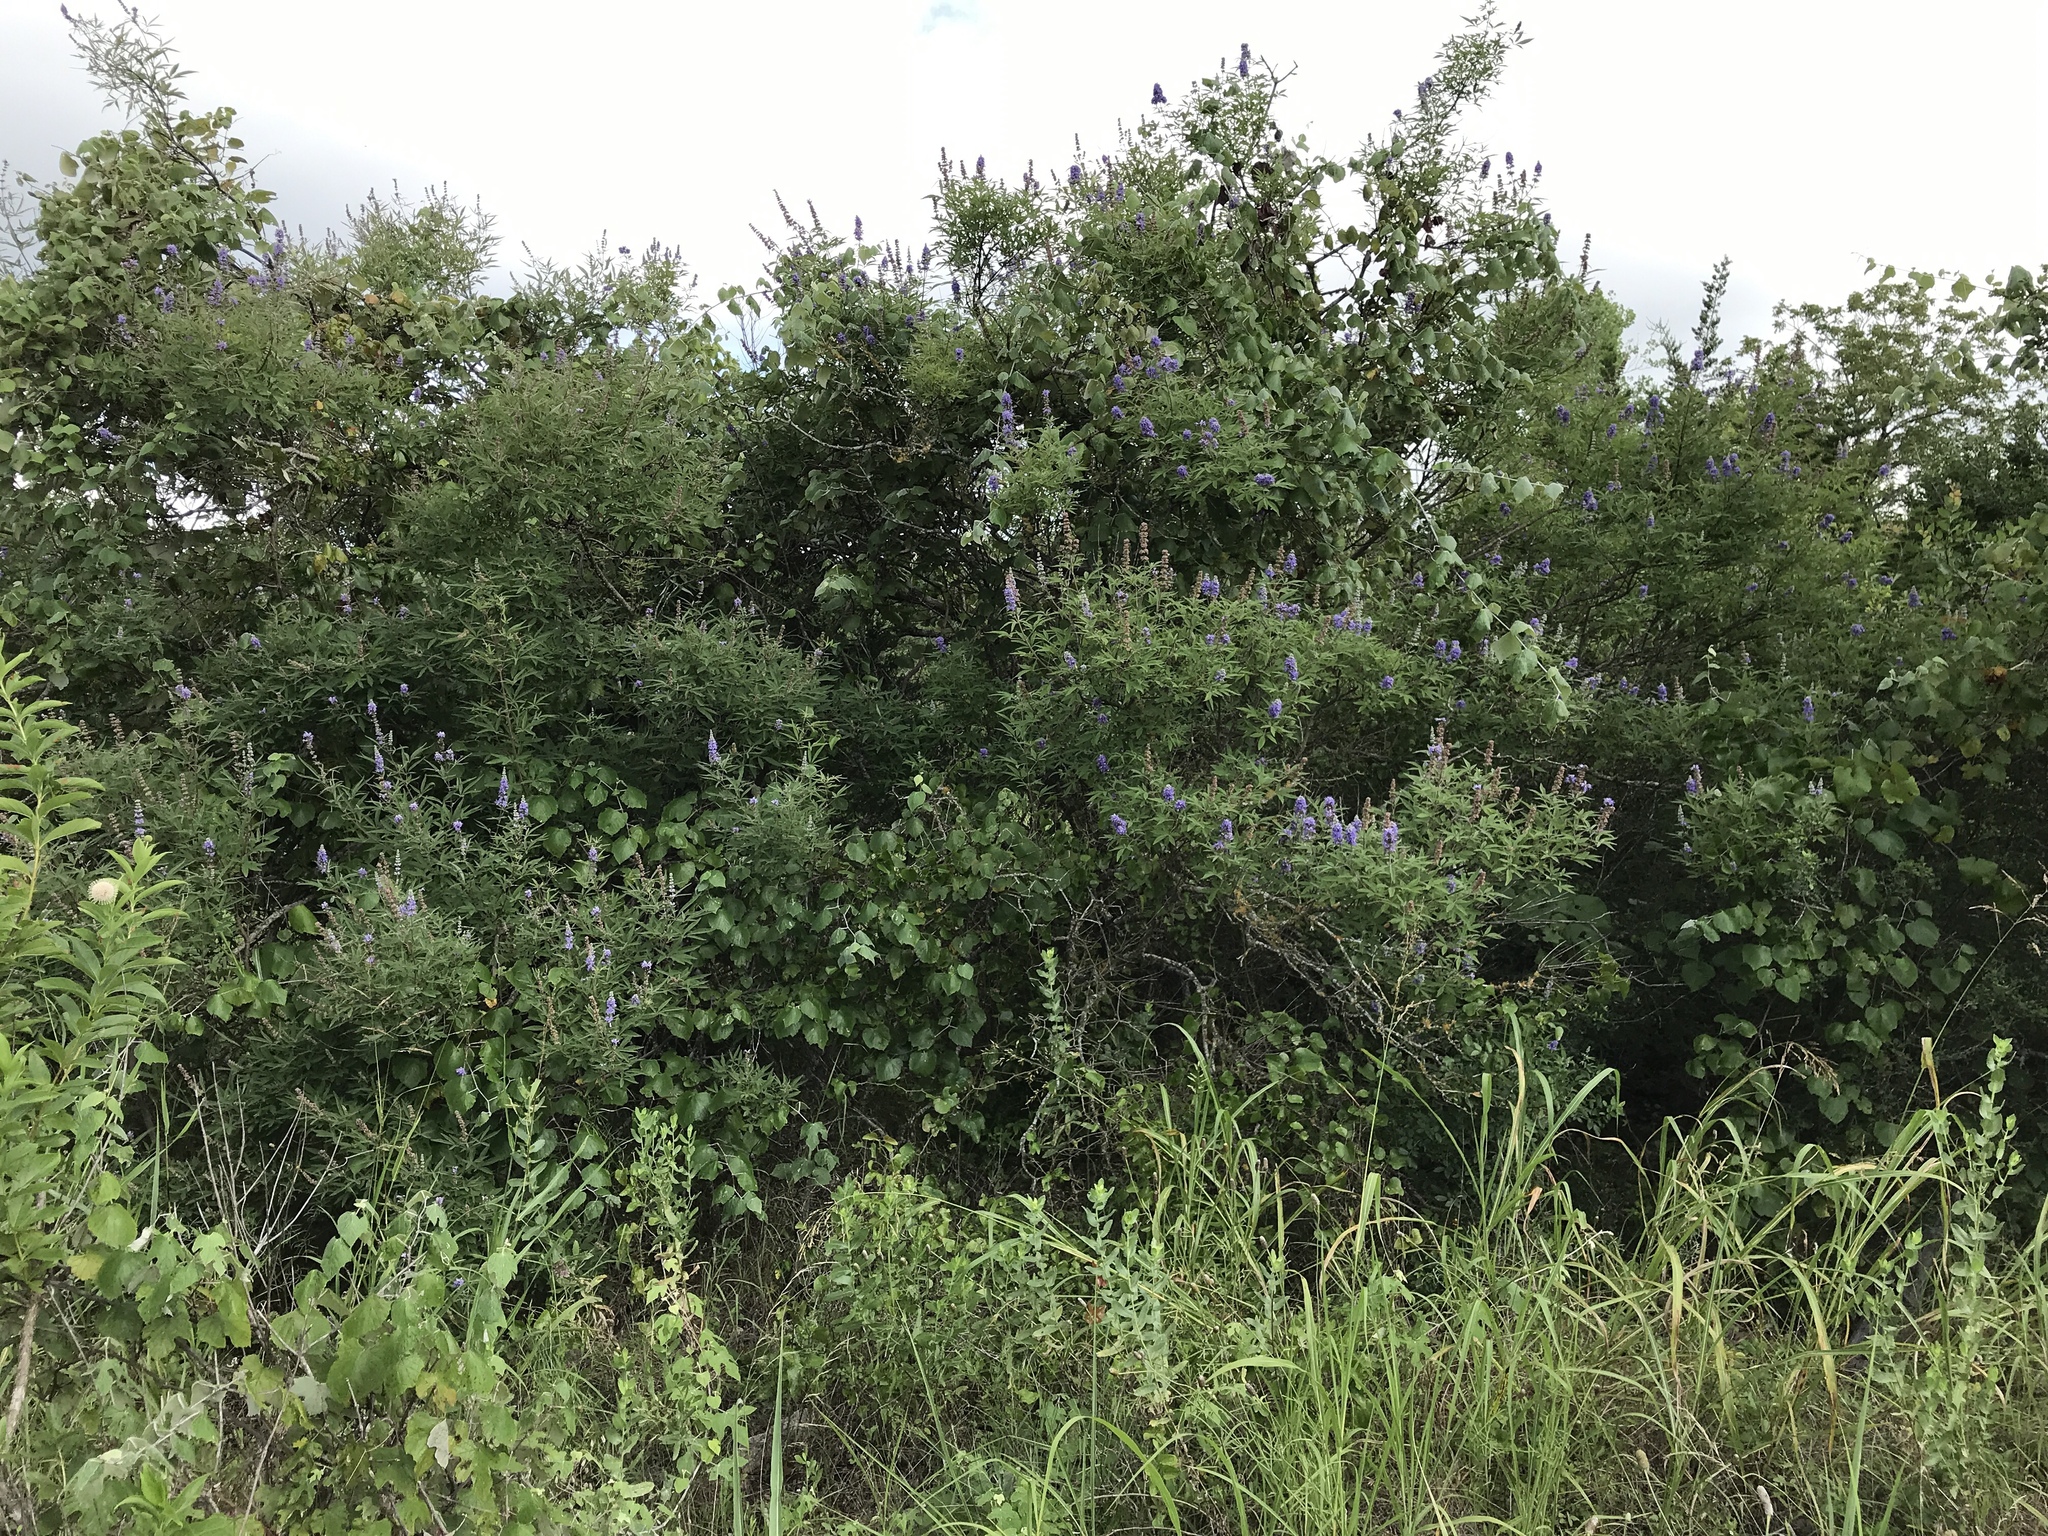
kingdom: Plantae
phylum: Tracheophyta
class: Magnoliopsida
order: Lamiales
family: Lamiaceae
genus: Vitex
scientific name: Vitex agnus-castus
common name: Chasteberry
